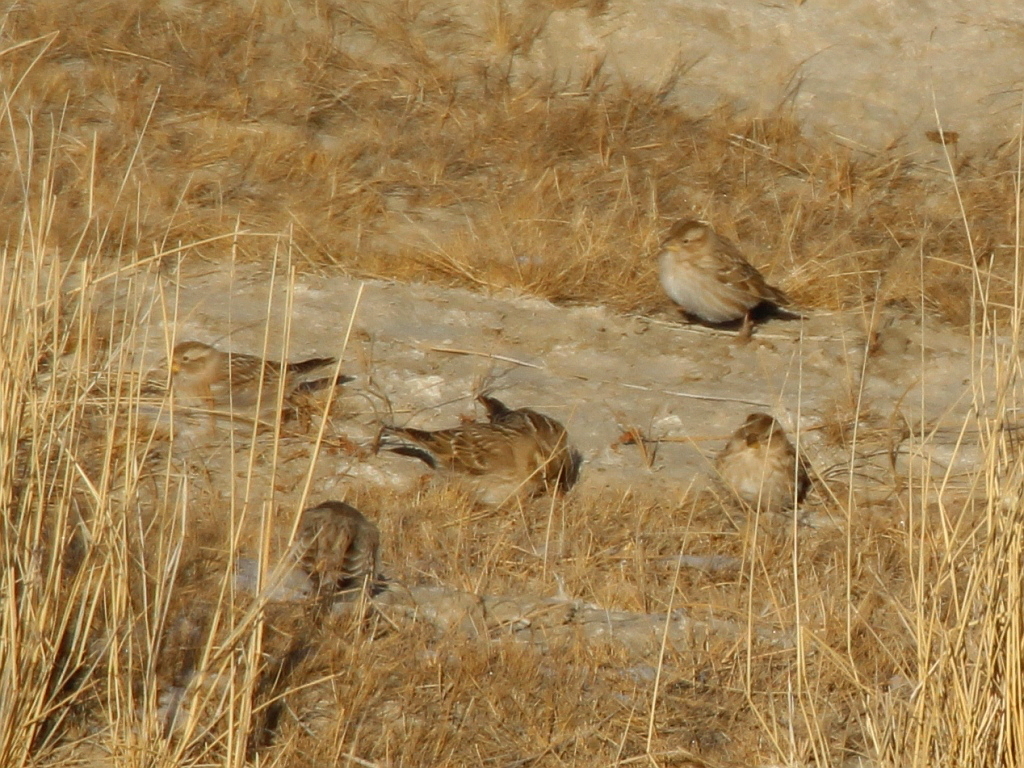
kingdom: Animalia
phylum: Chordata
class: Aves
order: Passeriformes
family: Passeridae
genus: Petronia
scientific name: Petronia petronia
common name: Rock sparrow
